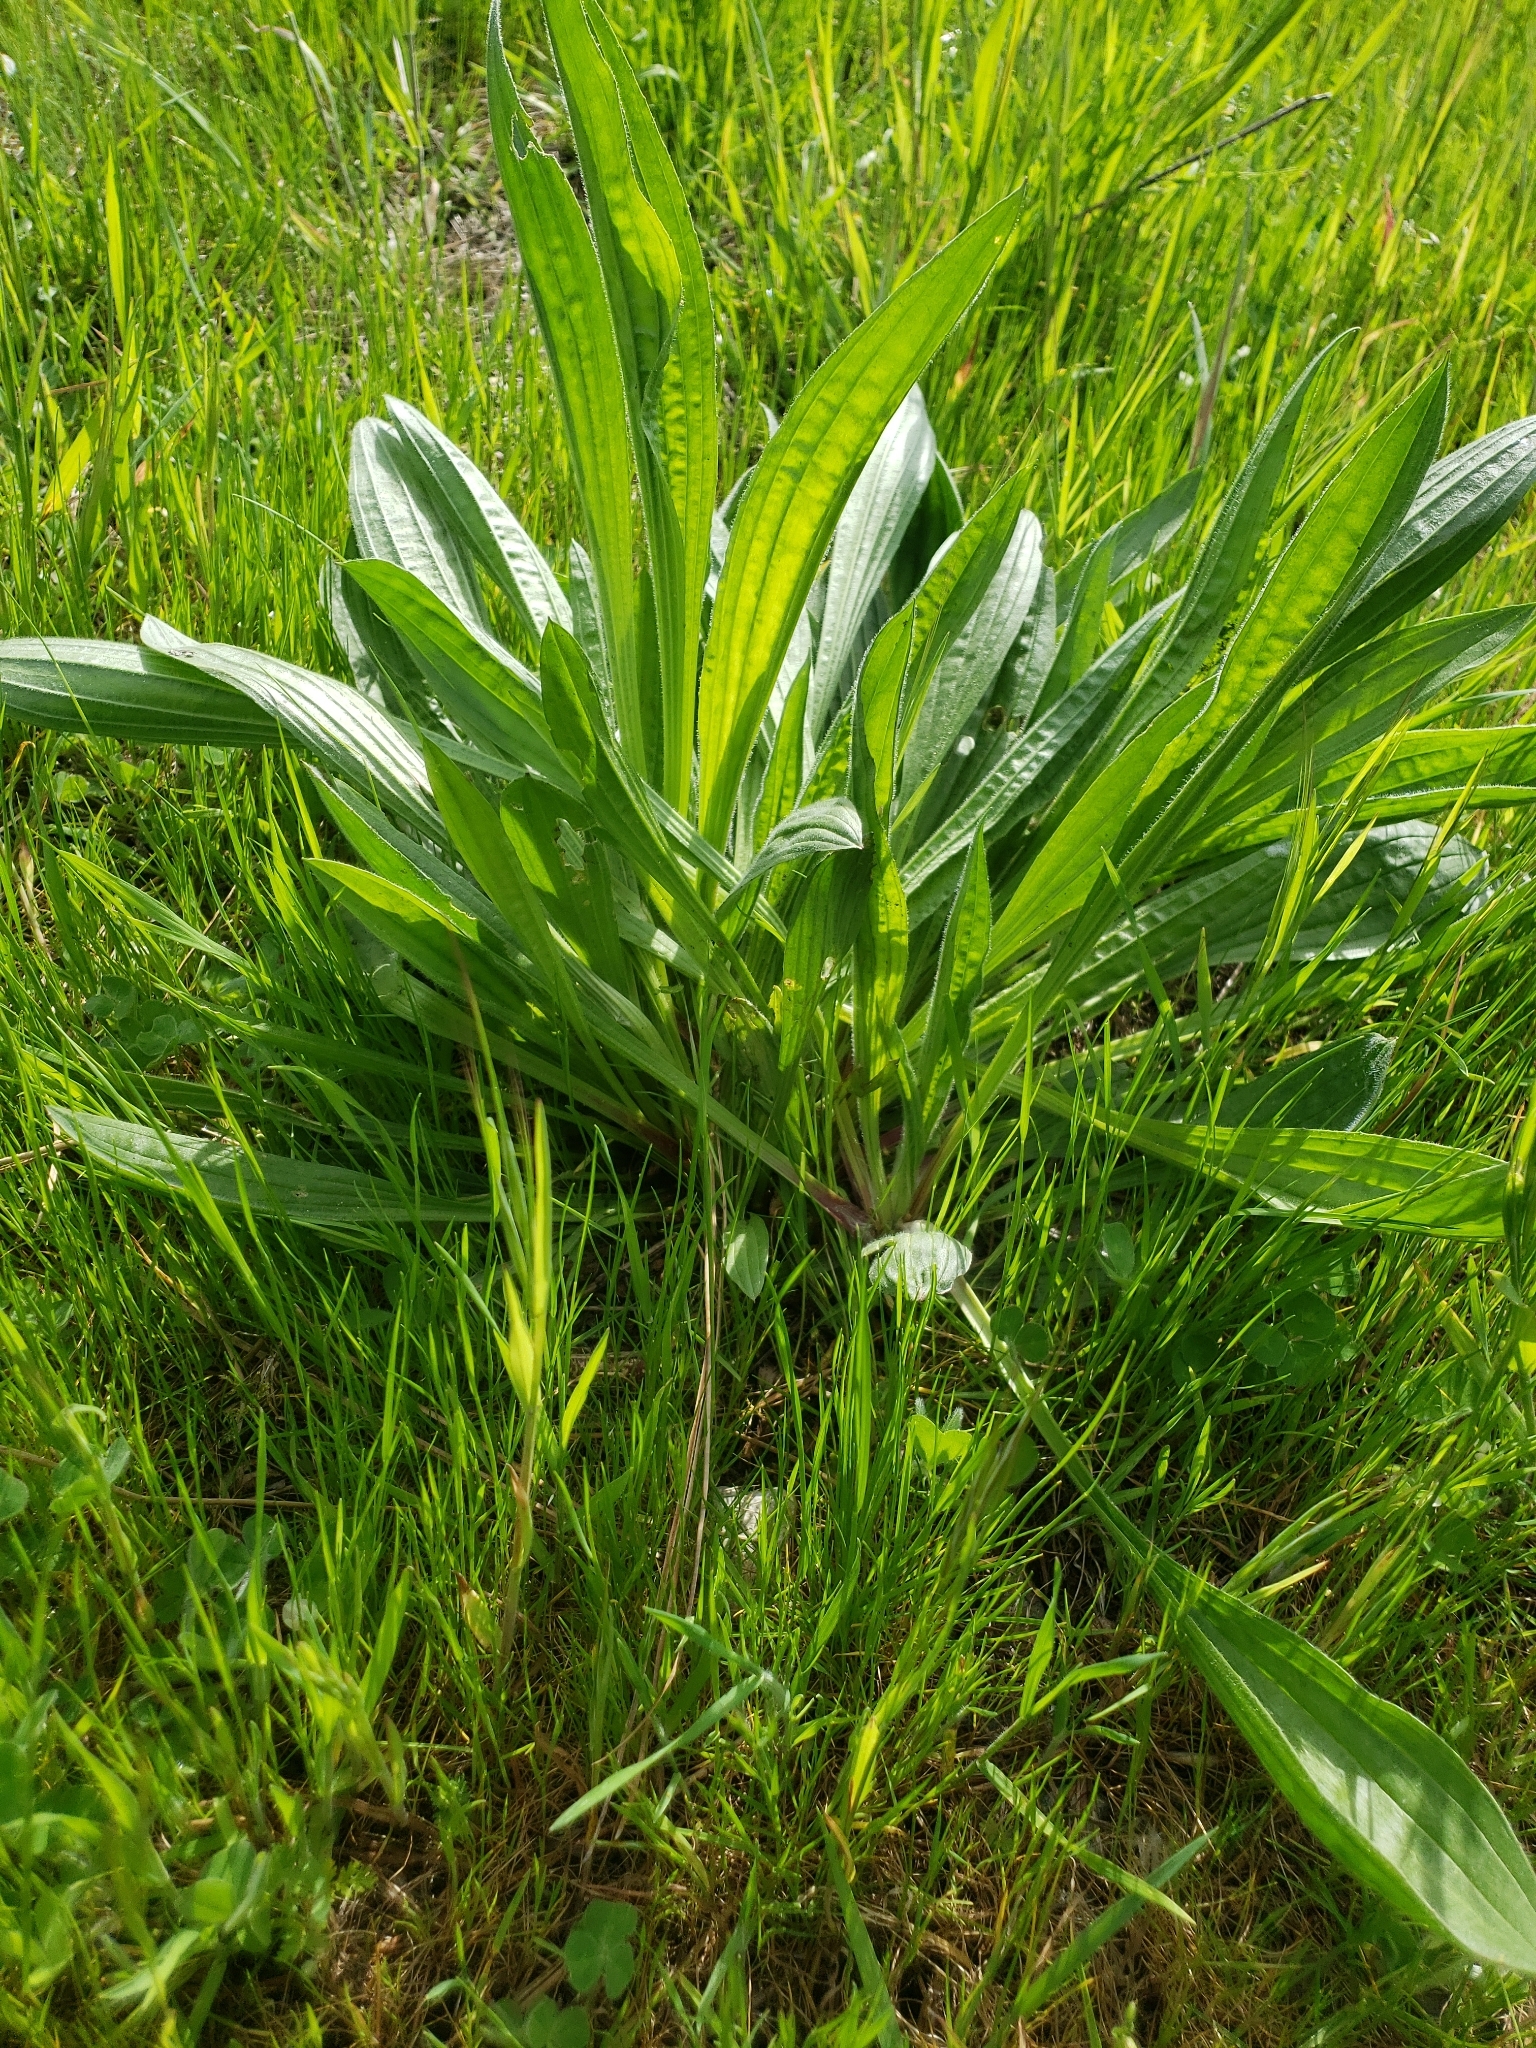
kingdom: Plantae
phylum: Tracheophyta
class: Magnoliopsida
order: Lamiales
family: Plantaginaceae
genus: Plantago
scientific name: Plantago lanceolata
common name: Ribwort plantain
